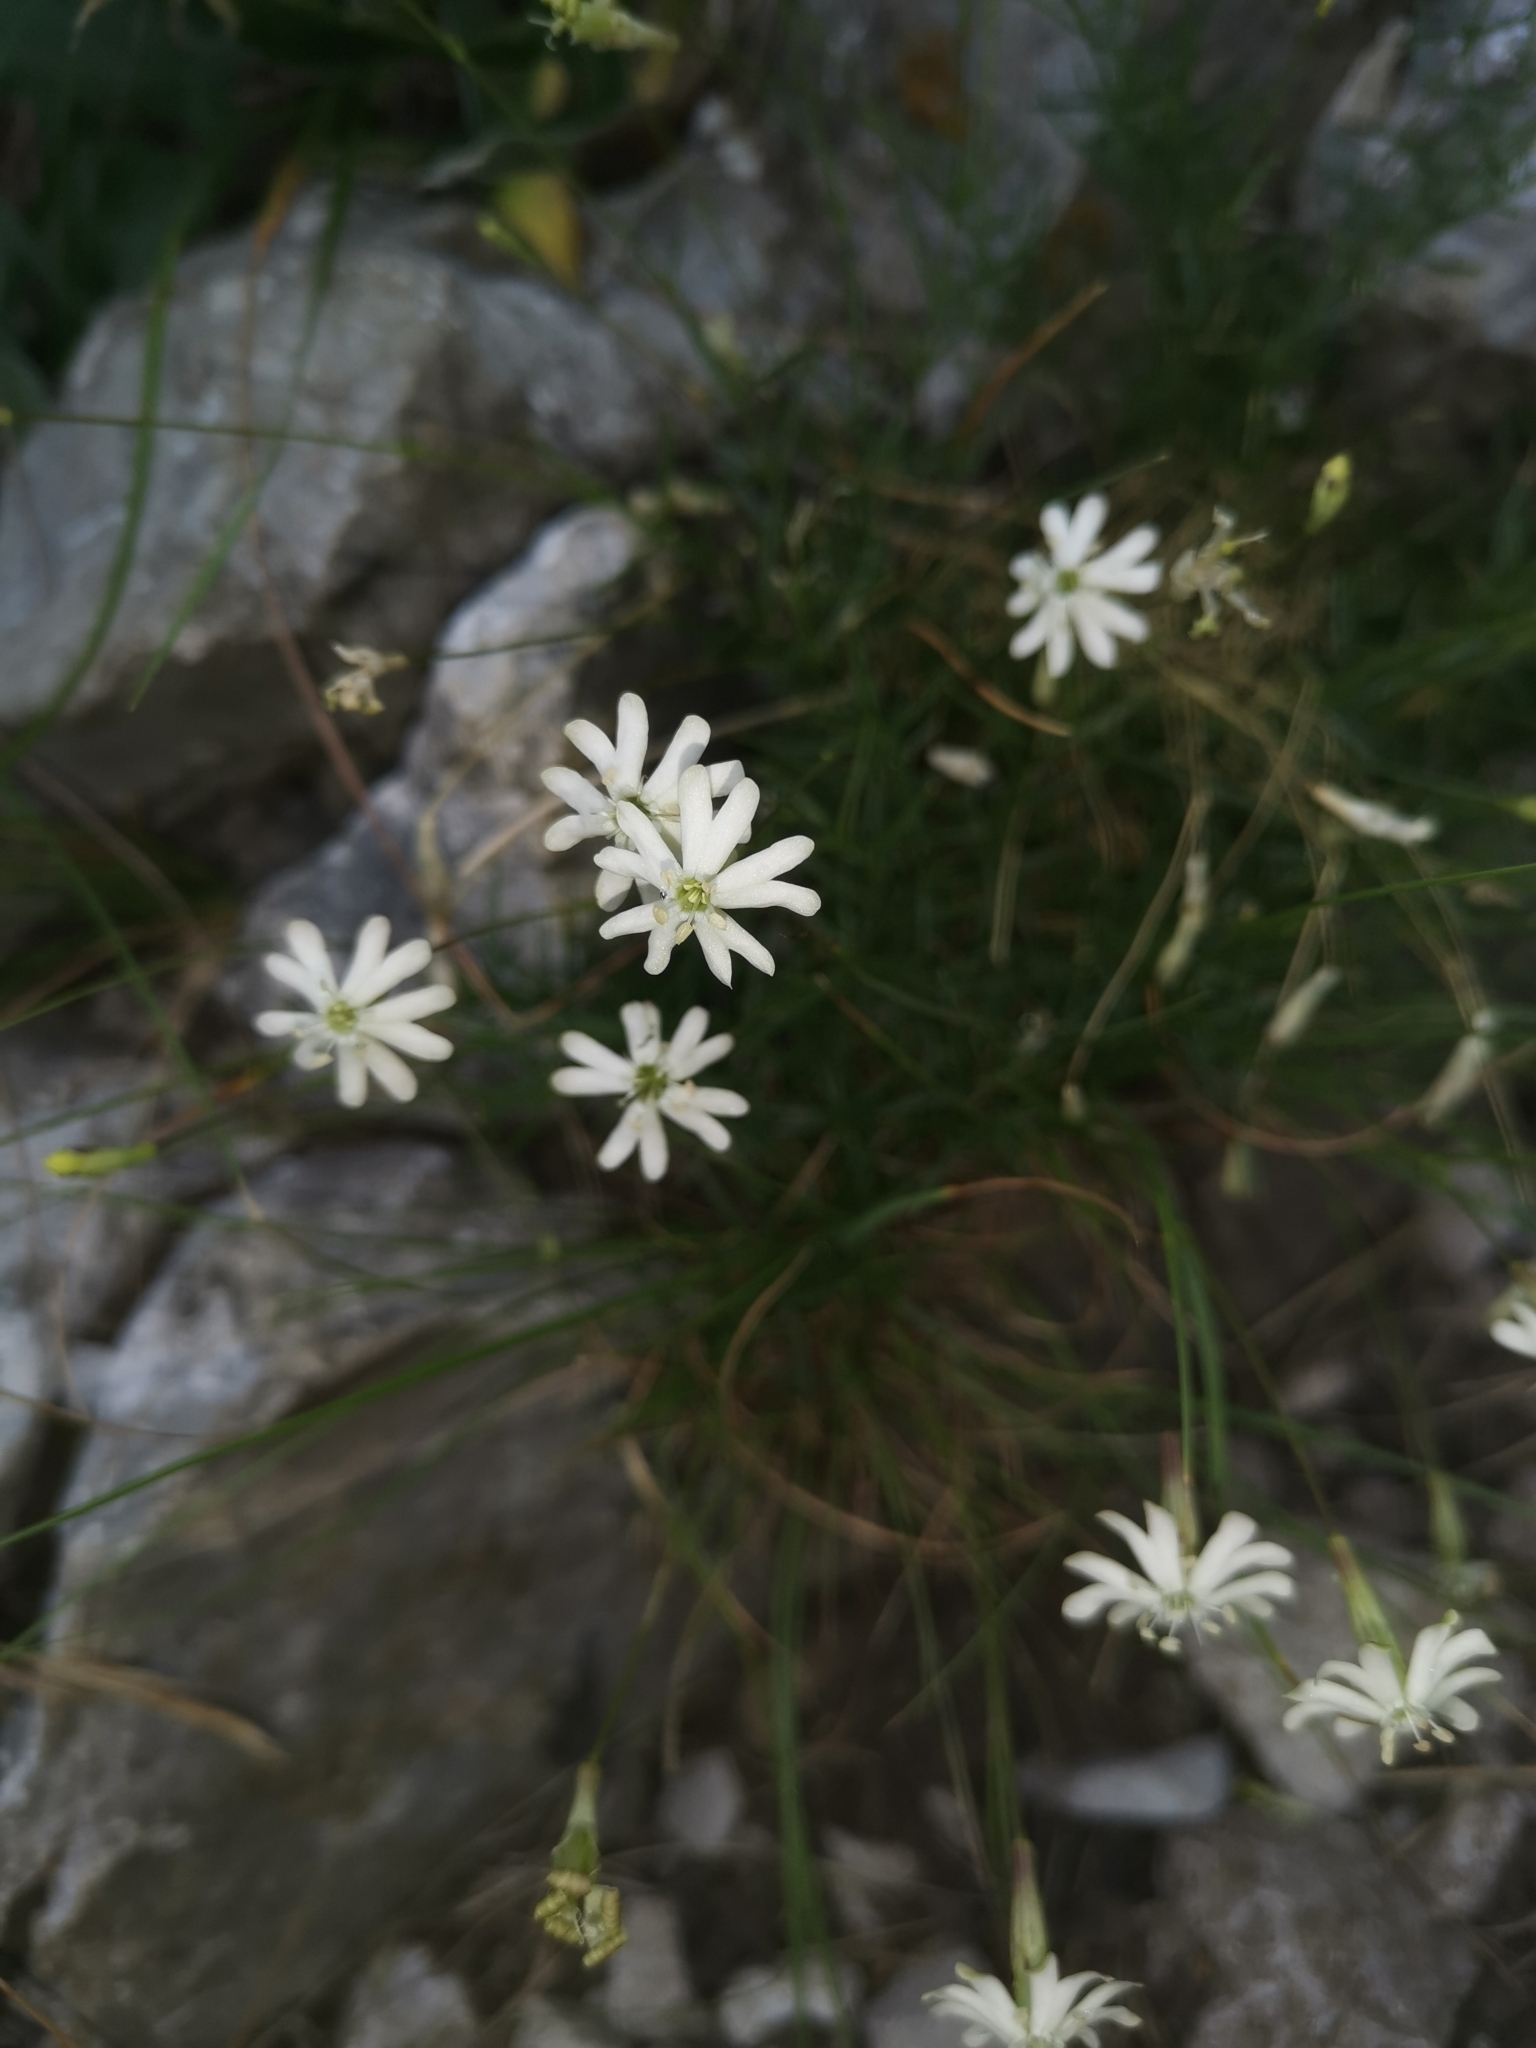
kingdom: Plantae
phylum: Tracheophyta
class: Magnoliopsida
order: Caryophyllales
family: Caryophyllaceae
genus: Silene
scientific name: Silene hayekiana
